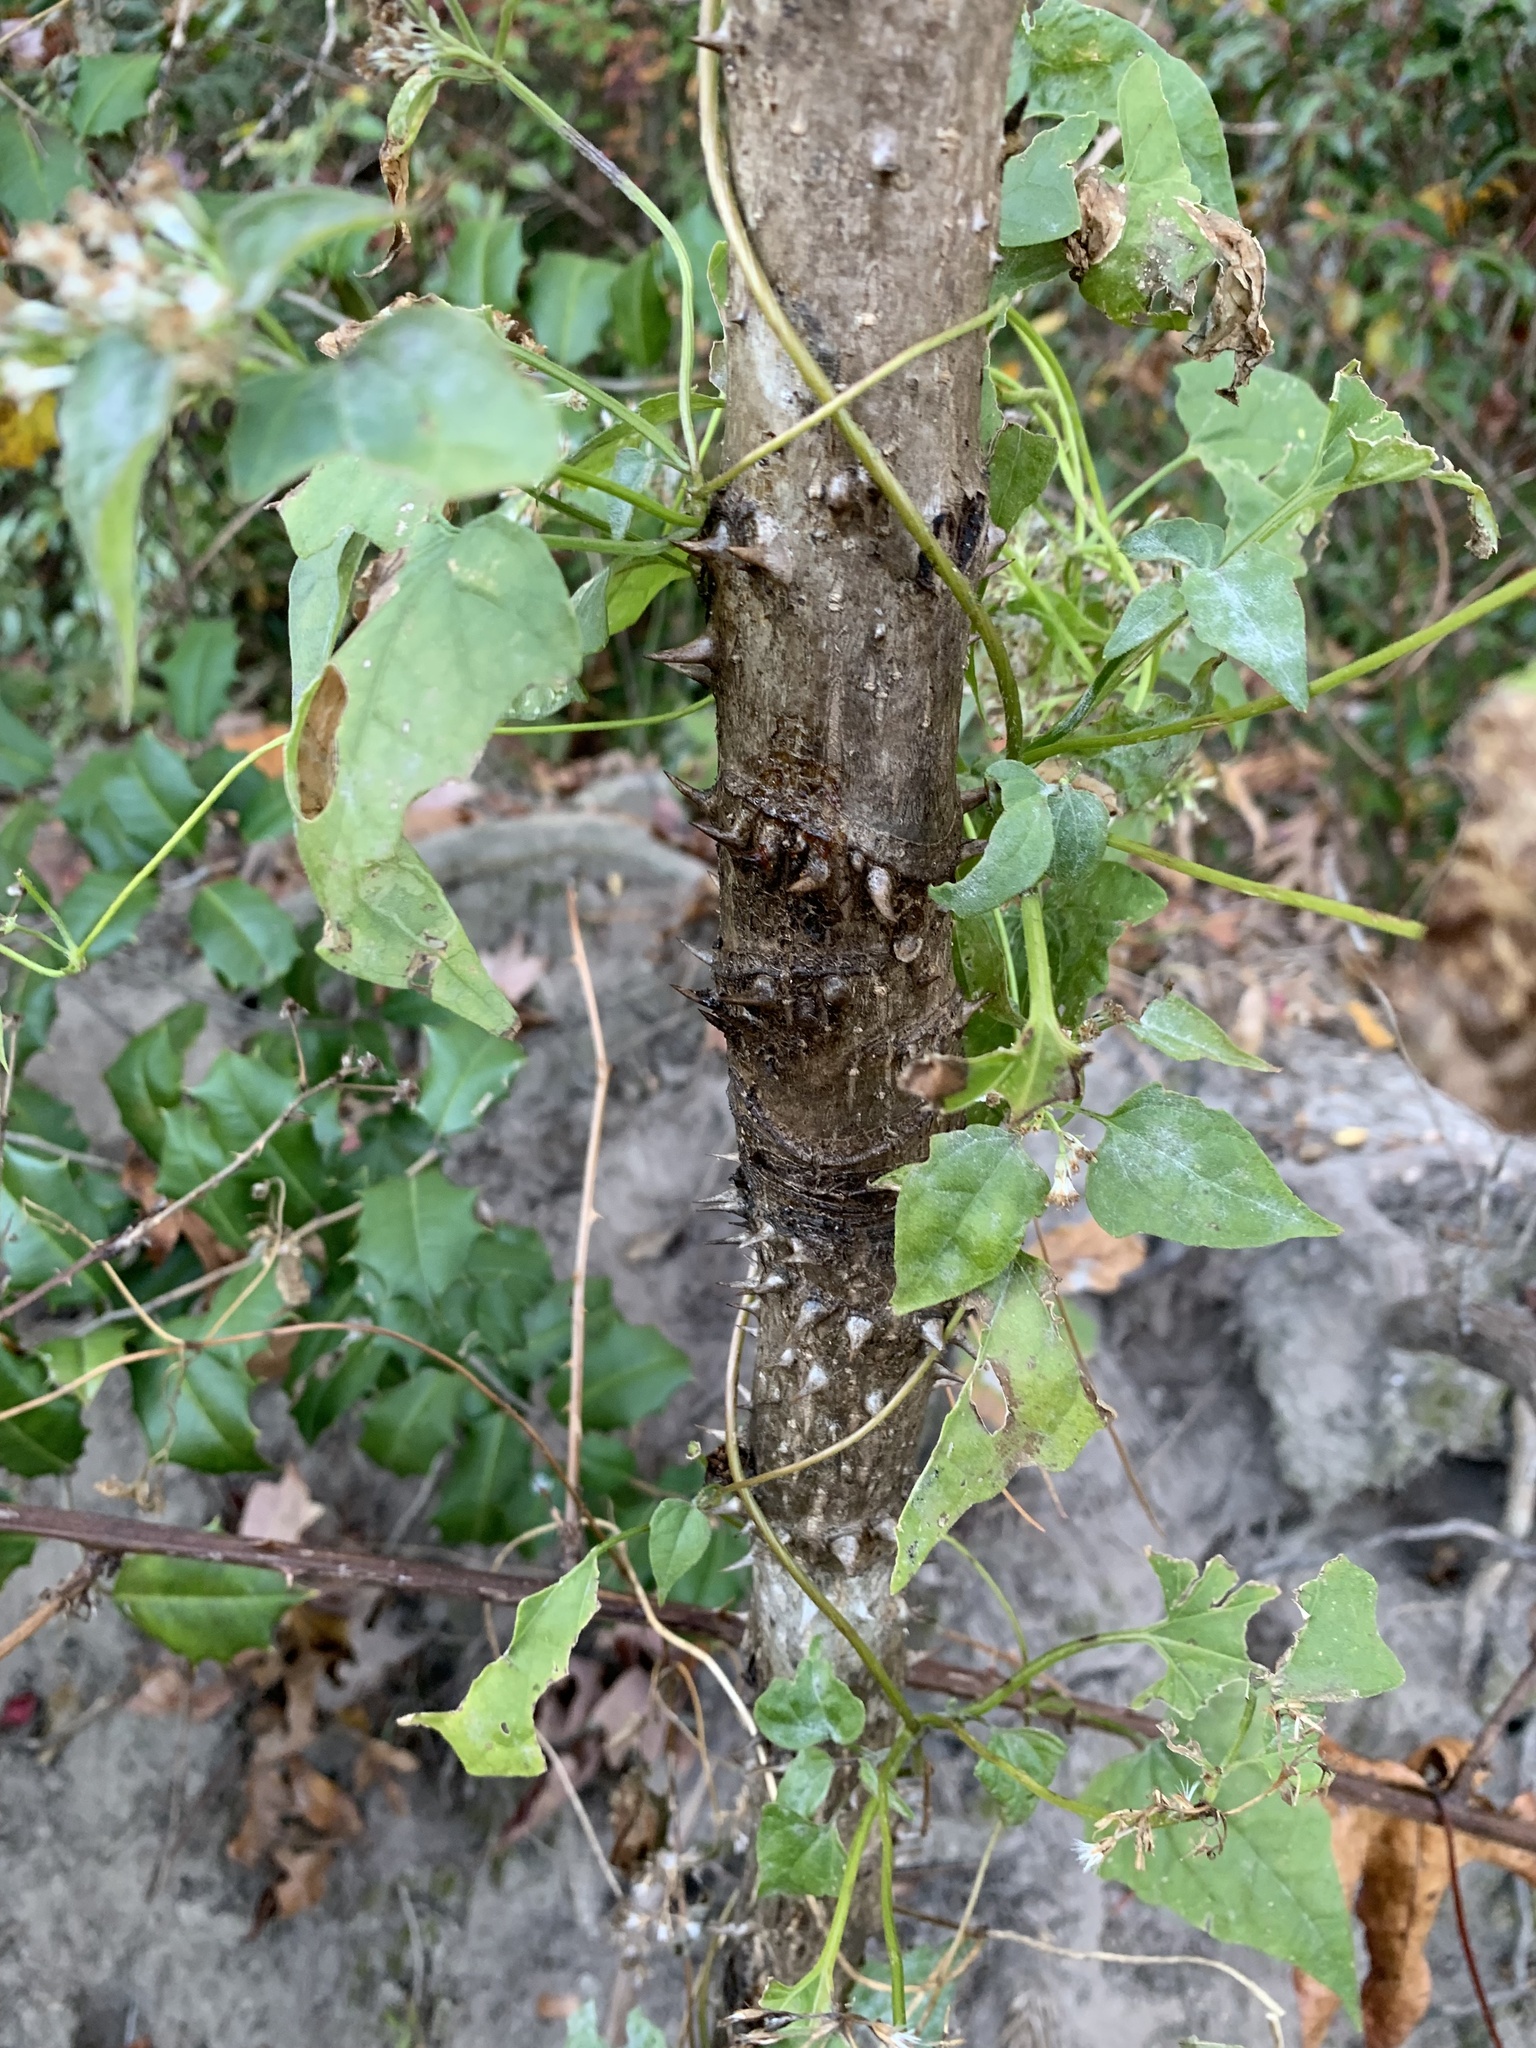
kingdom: Plantae
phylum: Tracheophyta
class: Magnoliopsida
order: Apiales
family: Araliaceae
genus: Aralia
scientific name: Aralia
